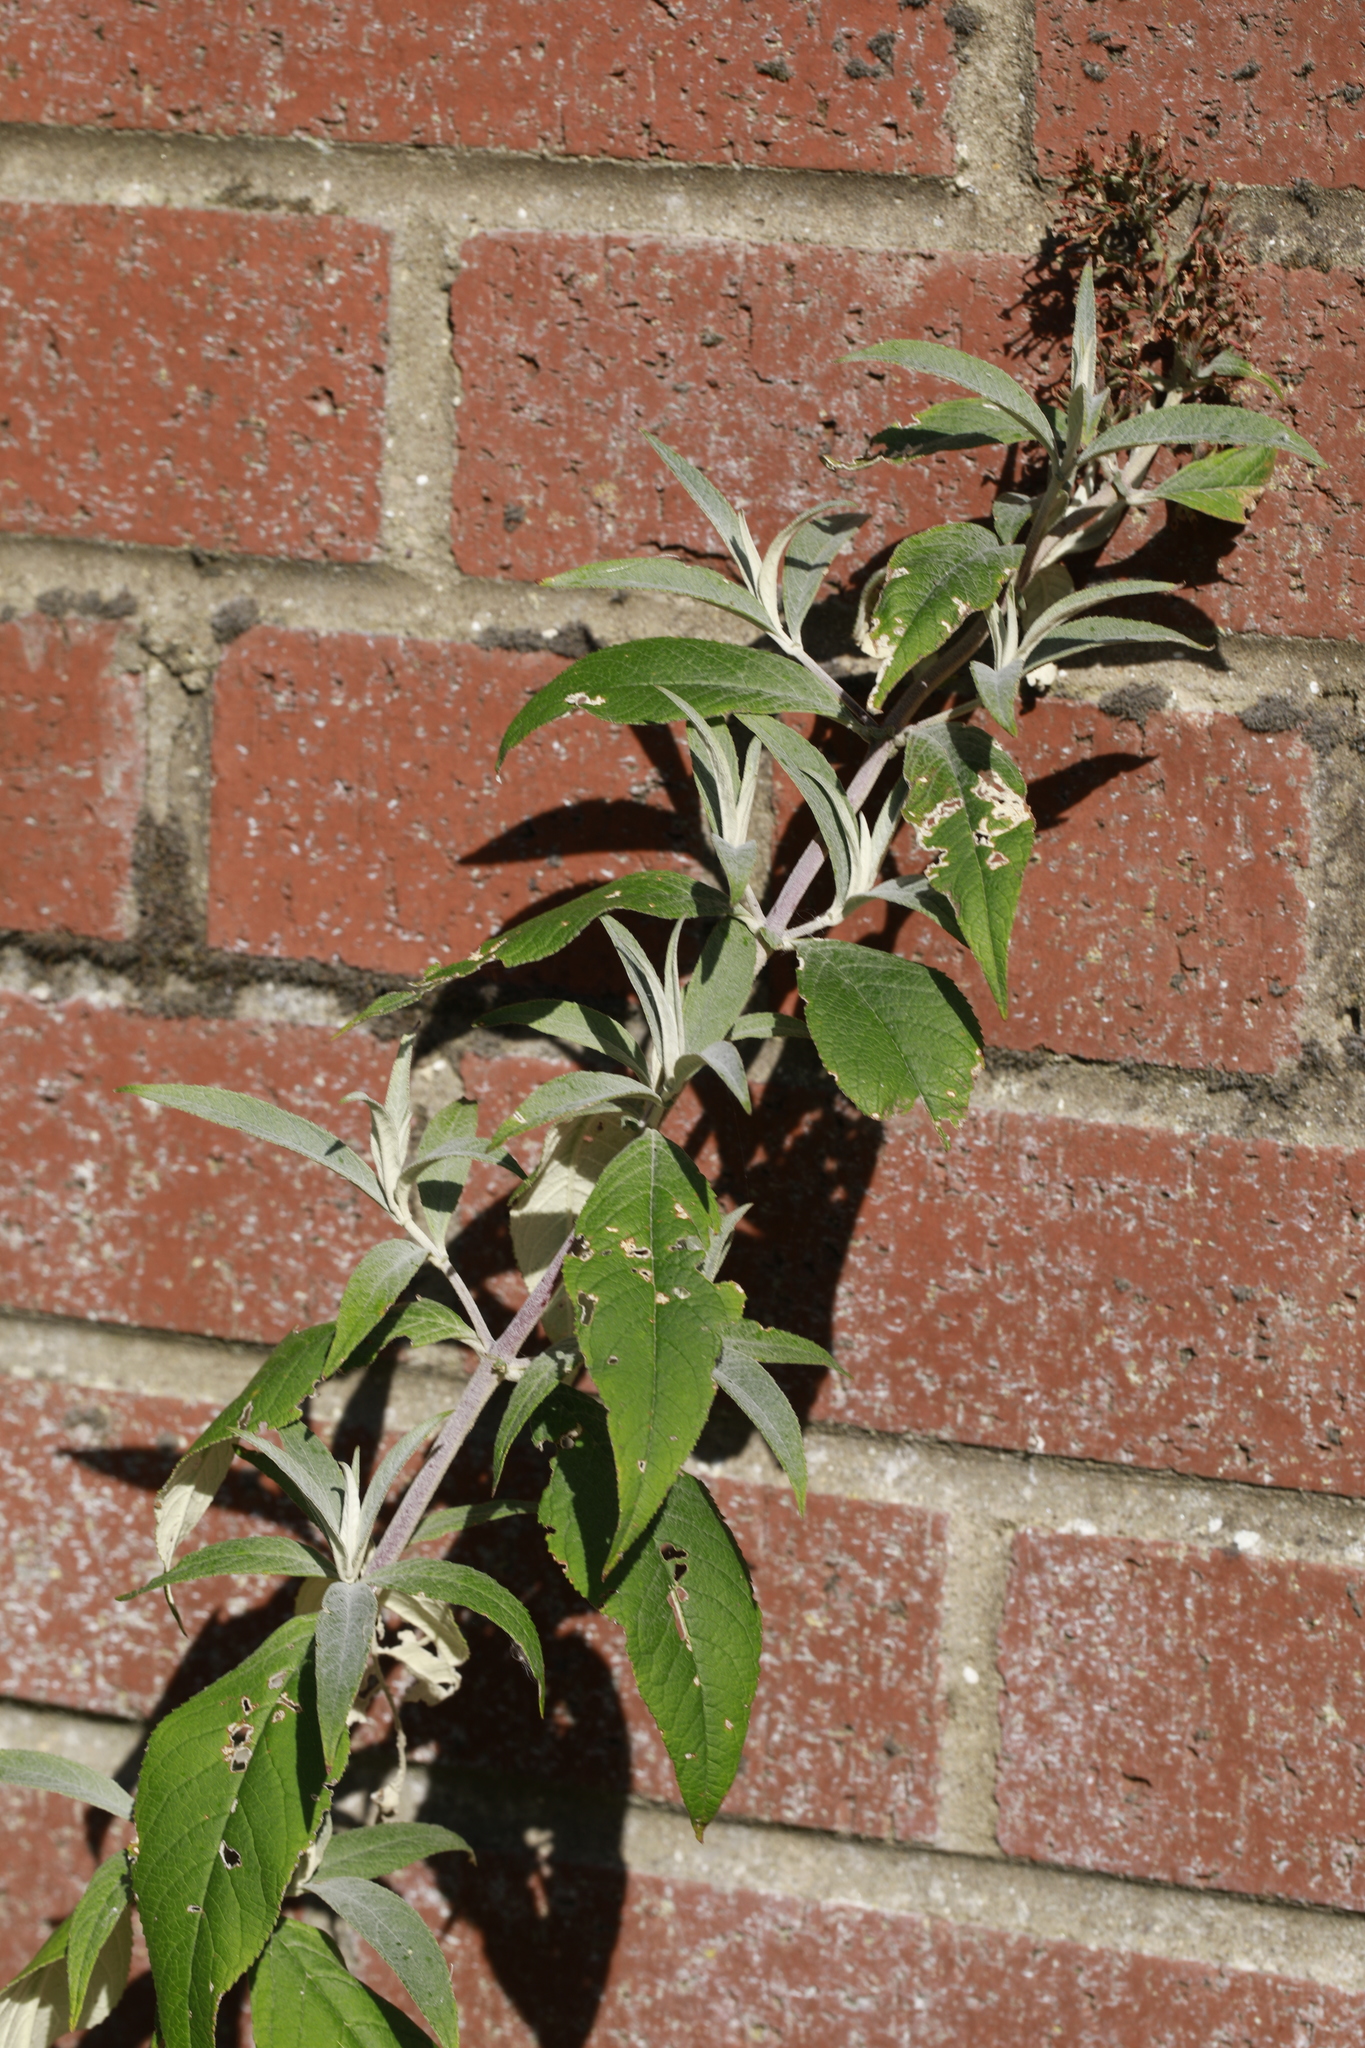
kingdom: Plantae
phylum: Tracheophyta
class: Magnoliopsida
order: Lamiales
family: Scrophulariaceae
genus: Buddleja
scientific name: Buddleja davidii
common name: Butterfly-bush
